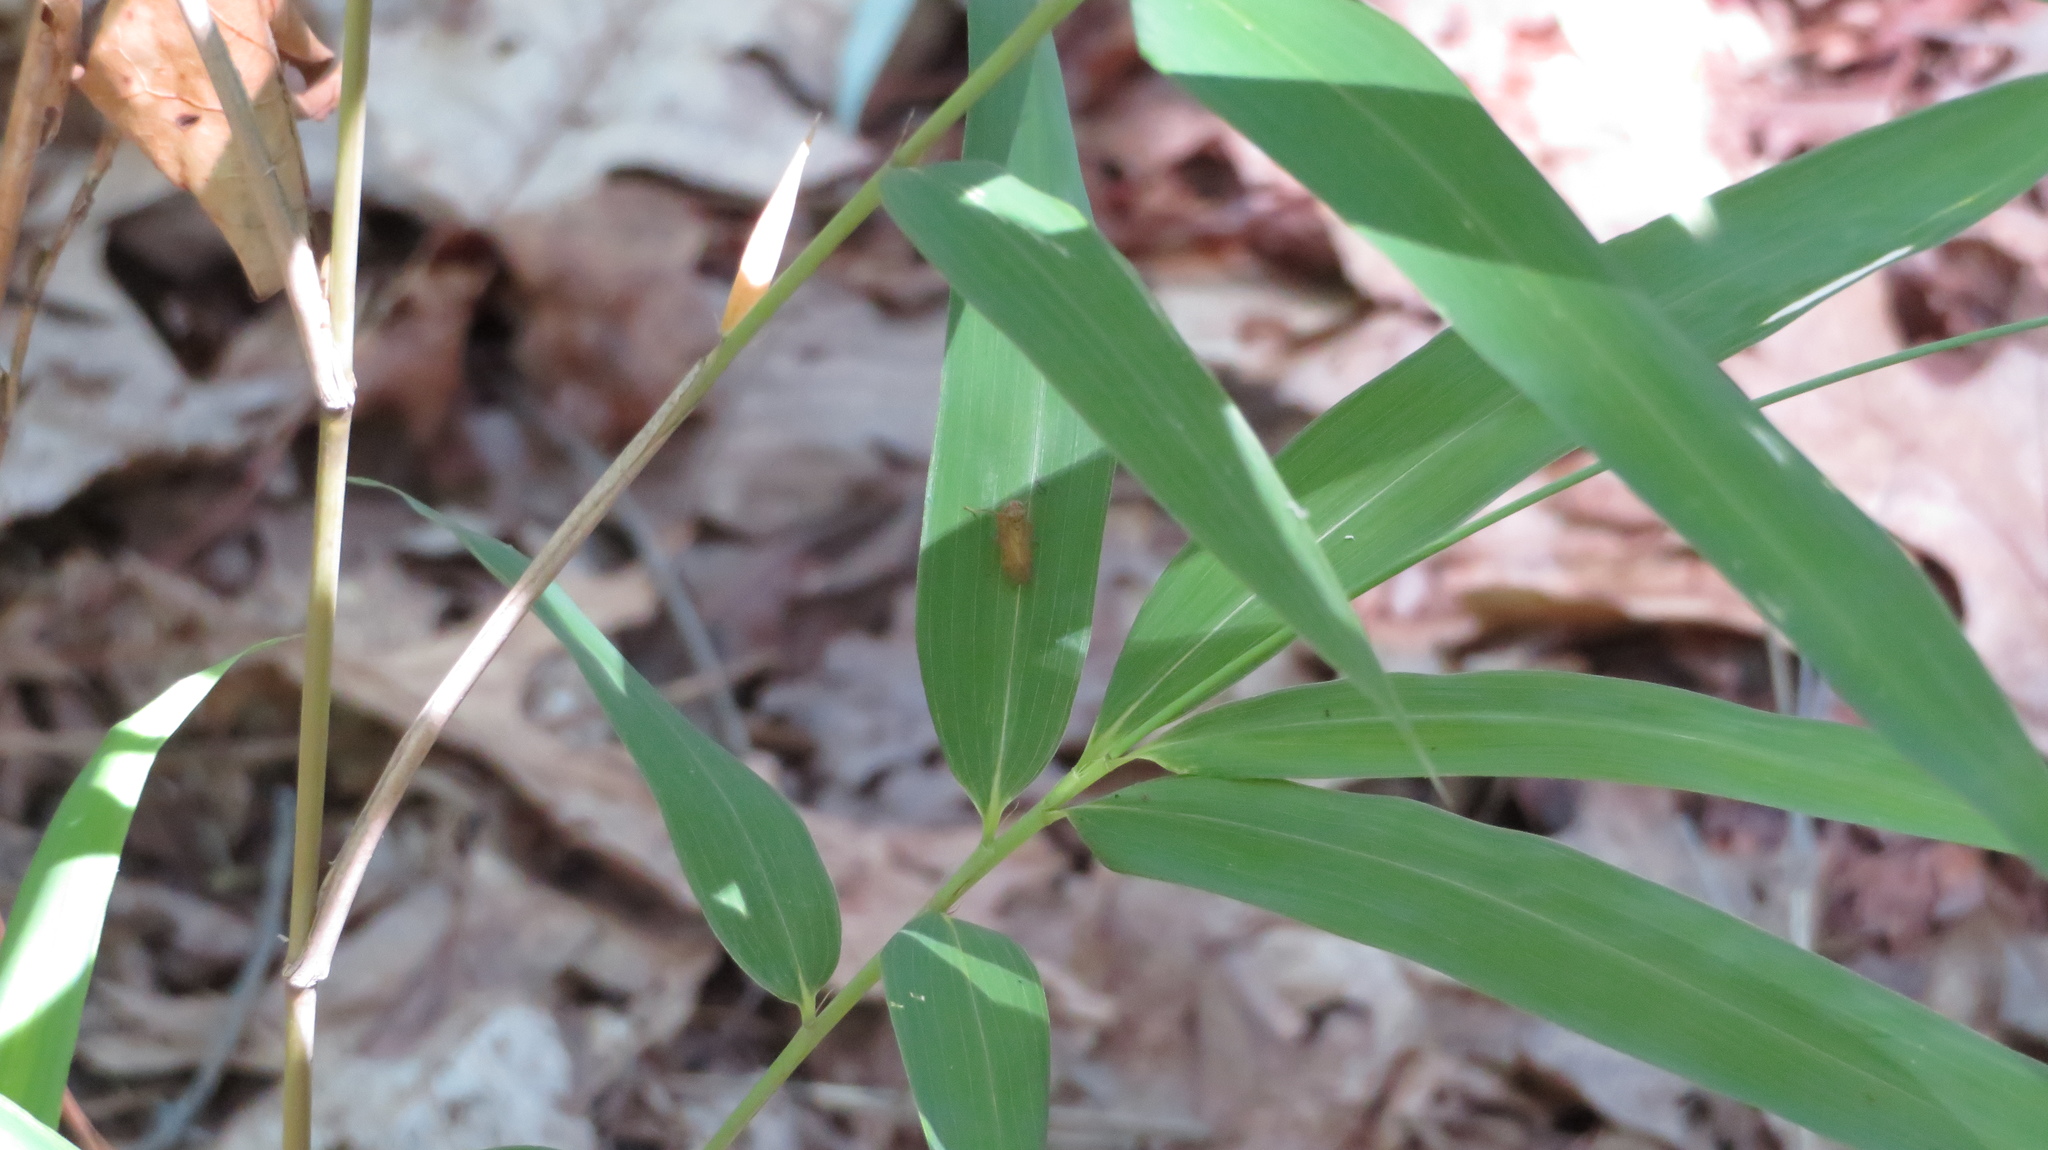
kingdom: Animalia
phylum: Arthropoda
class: Insecta
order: Hemiptera
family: Cicadellidae
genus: Jikradia
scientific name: Jikradia olitoria
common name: Coppery leafhopper
